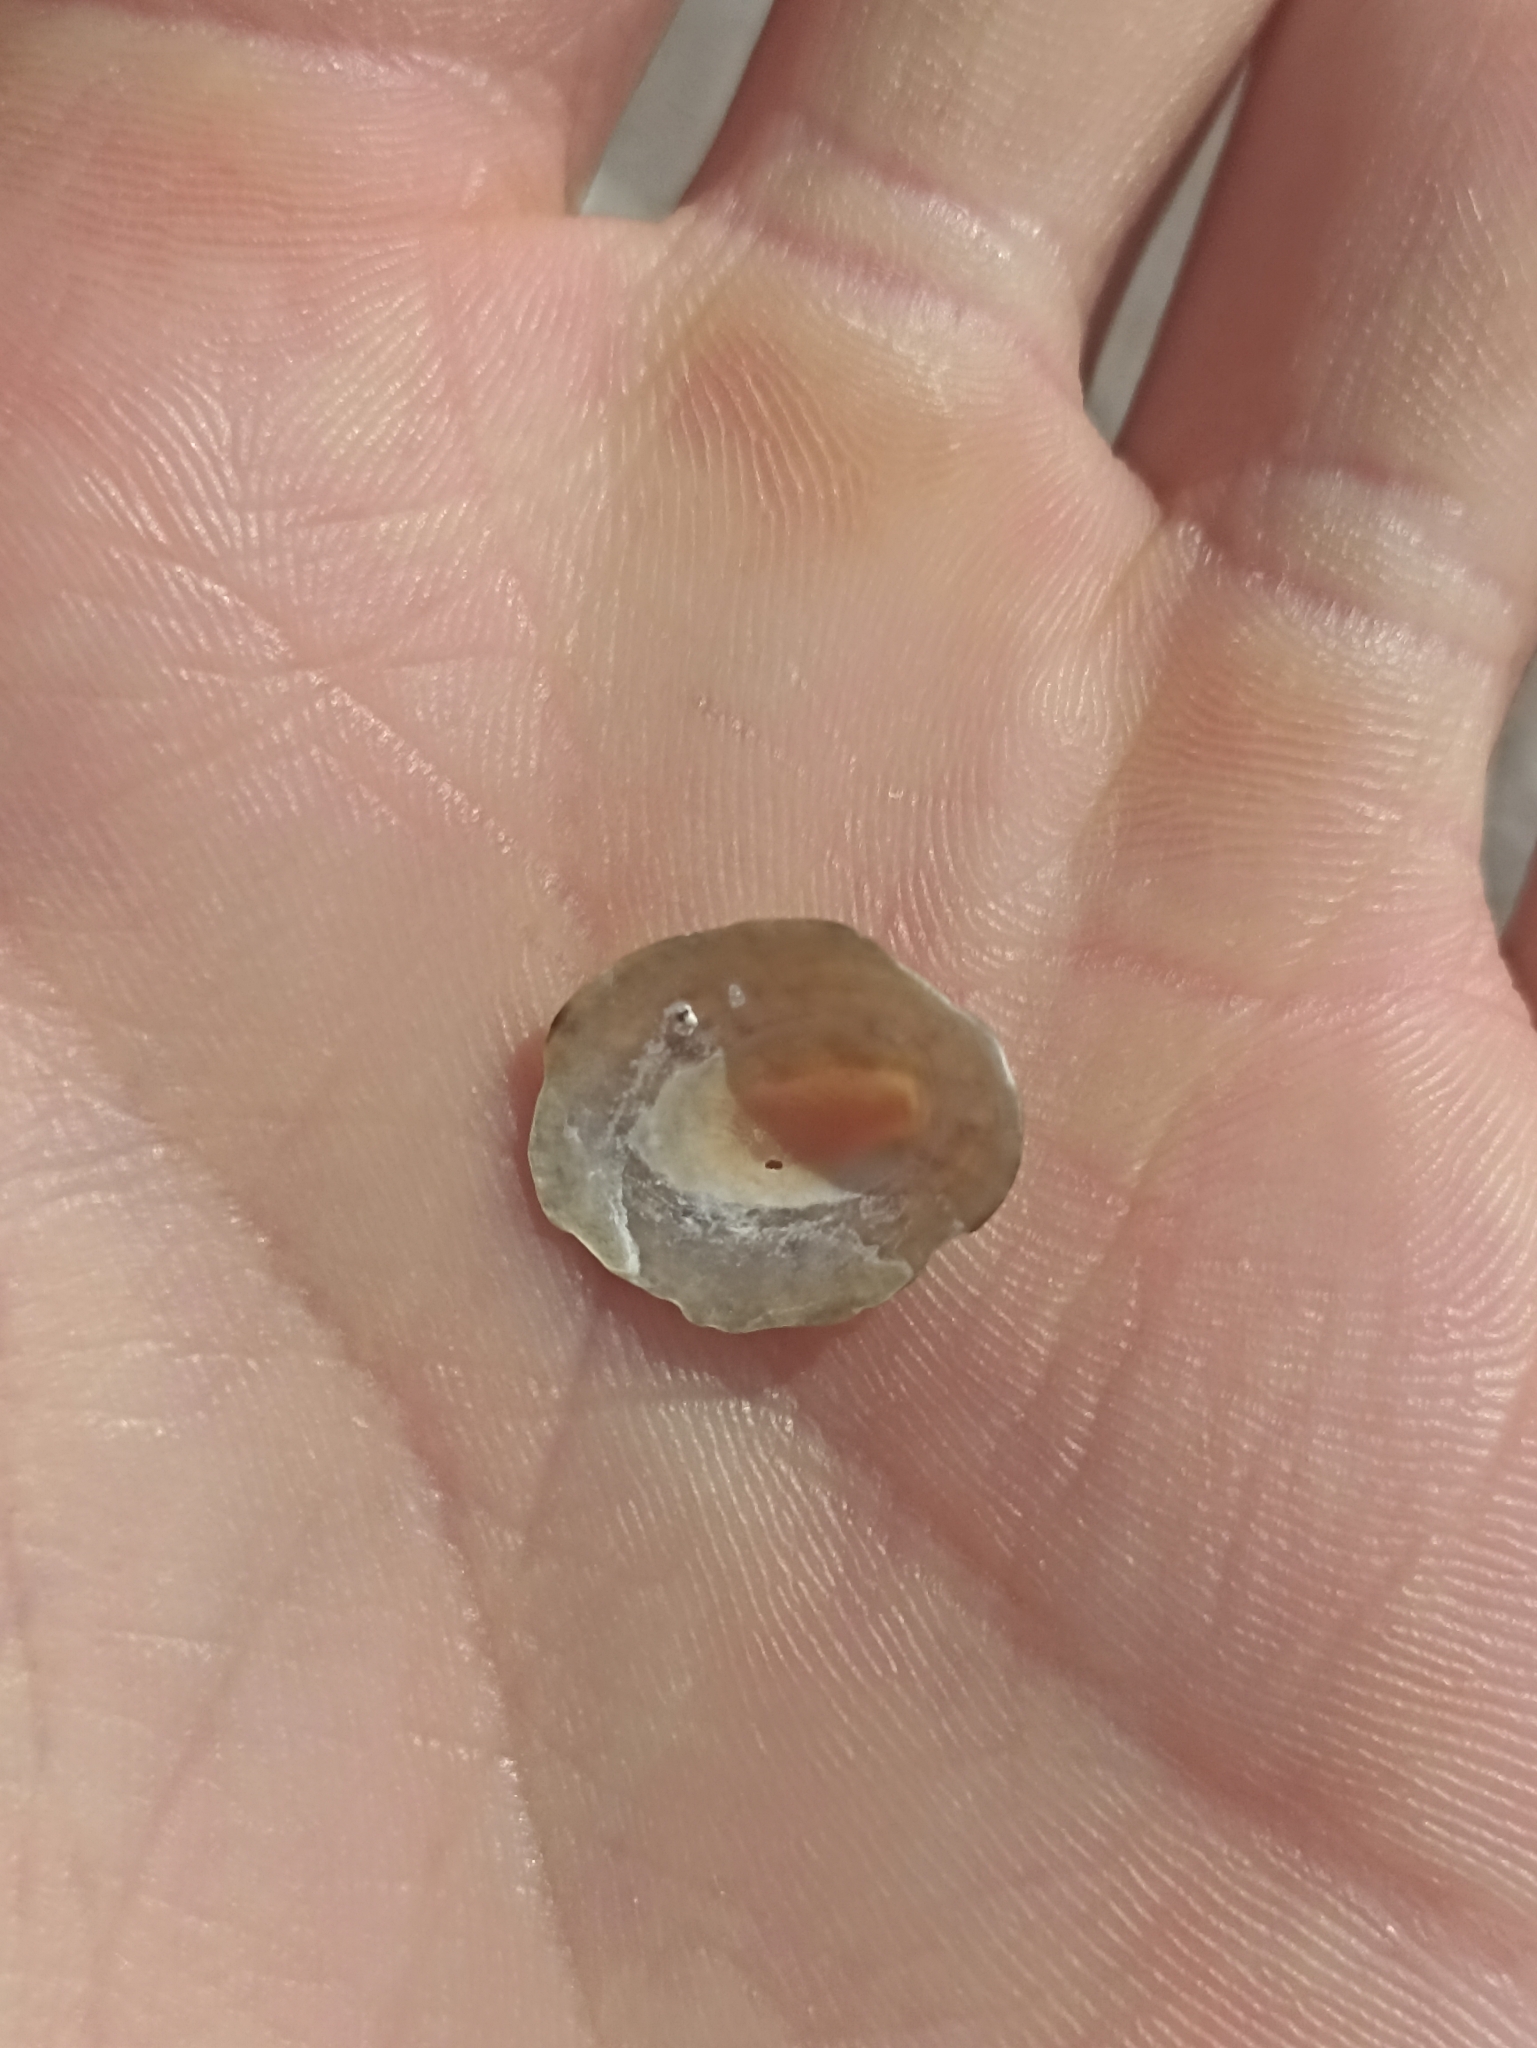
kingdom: Animalia
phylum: Mollusca
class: Gastropoda
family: Nacellidae
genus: Cellana
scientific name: Cellana radians
